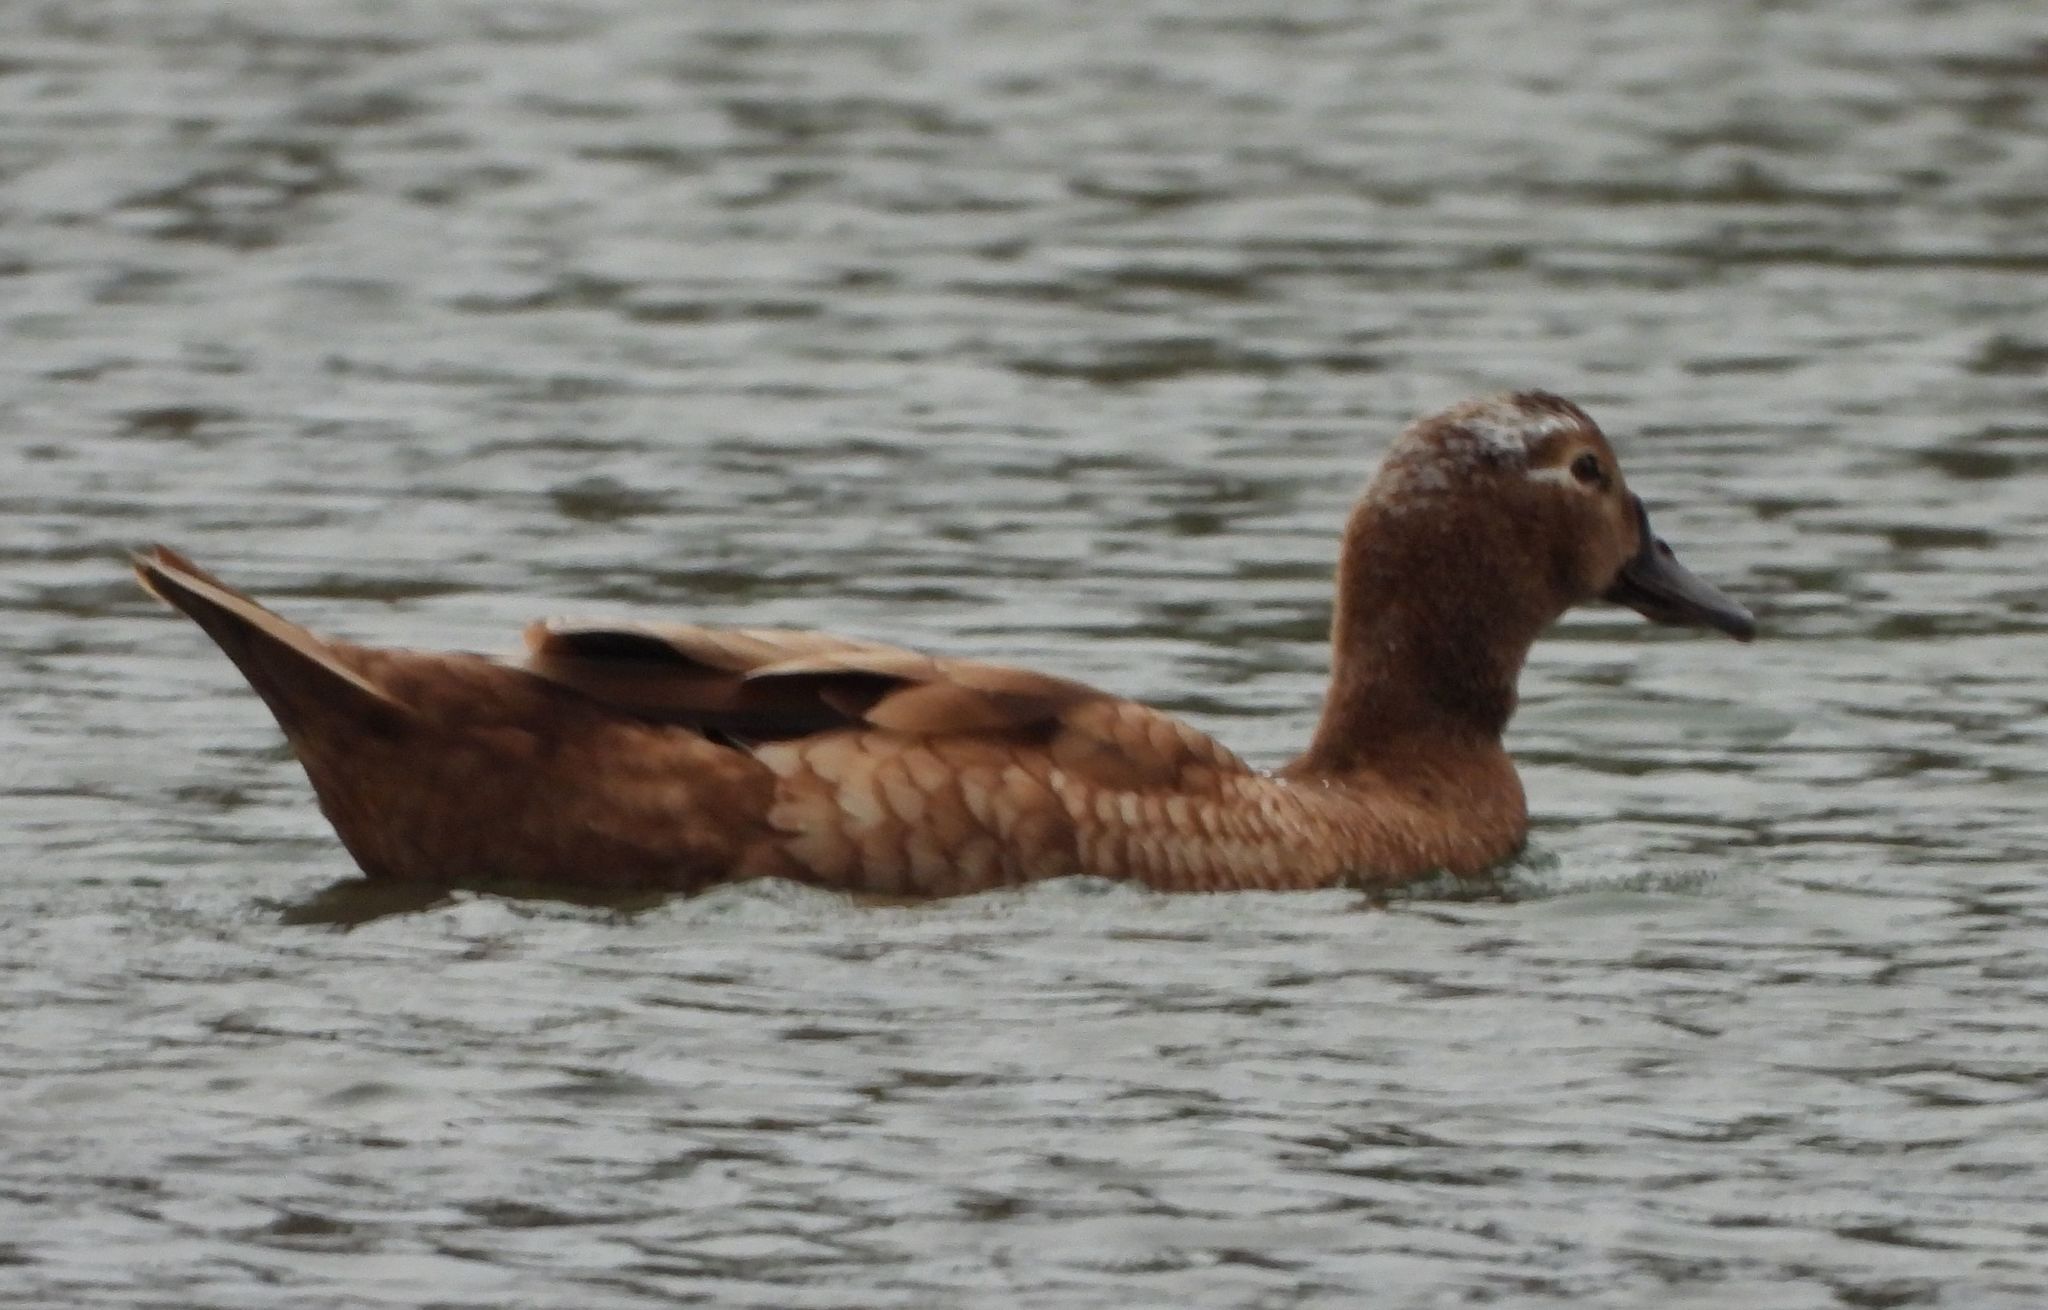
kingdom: Animalia
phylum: Chordata
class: Aves
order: Anseriformes
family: Anatidae
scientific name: Anatidae
